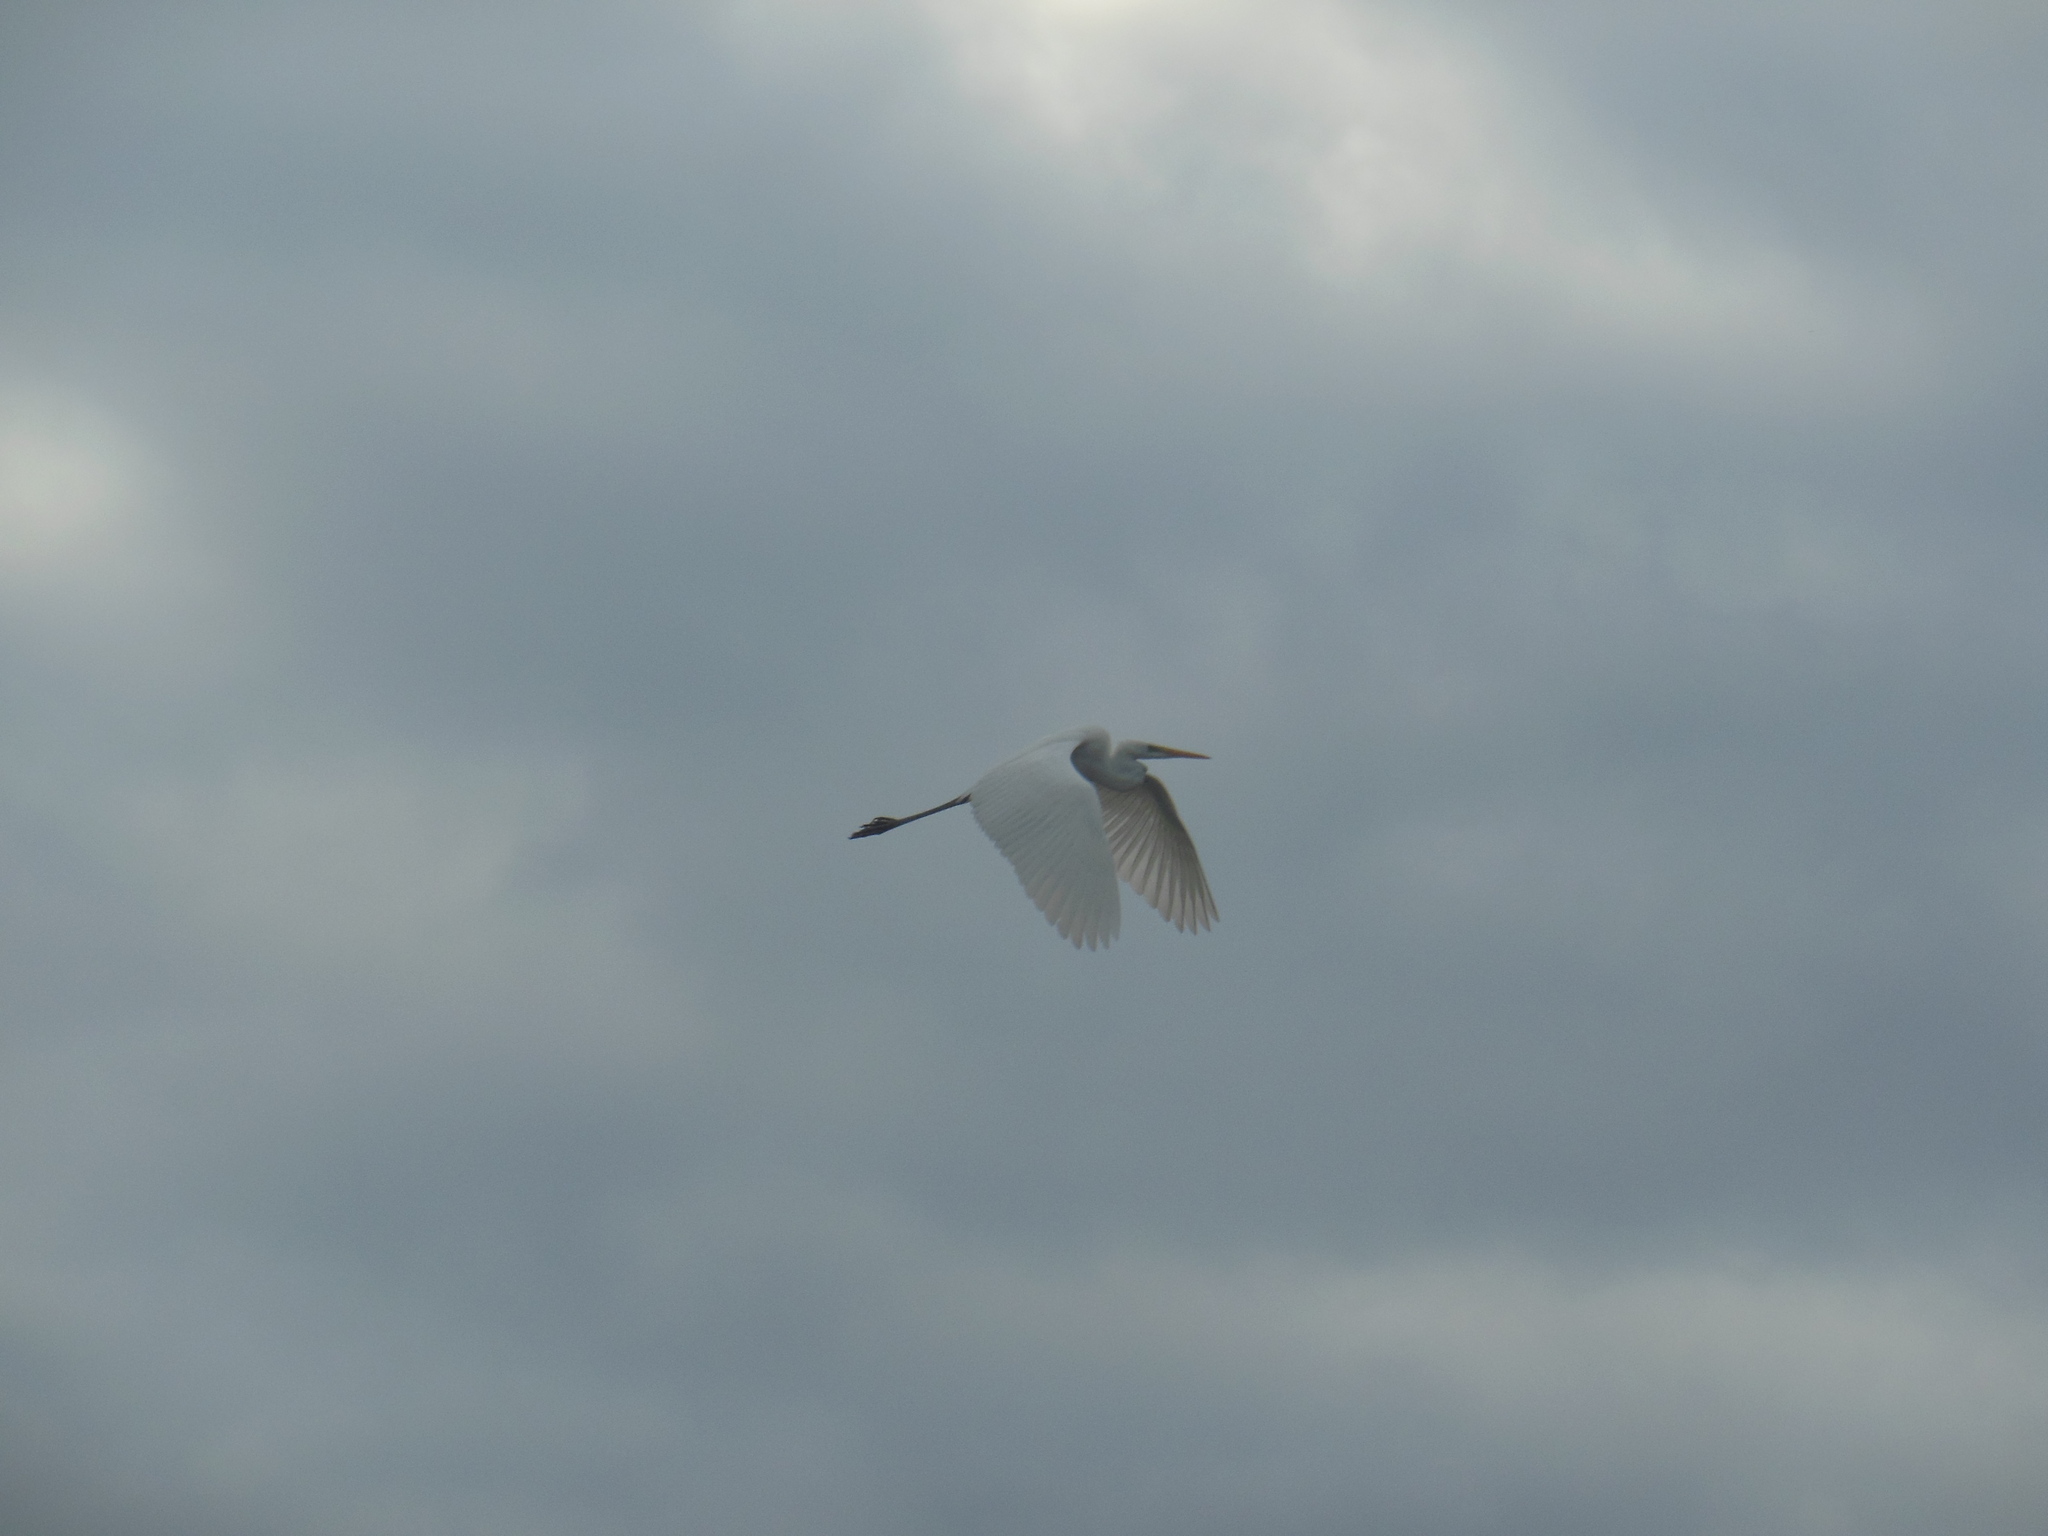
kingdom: Animalia
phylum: Chordata
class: Aves
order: Pelecaniformes
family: Ardeidae
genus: Ardea
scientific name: Ardea alba
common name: Great egret
